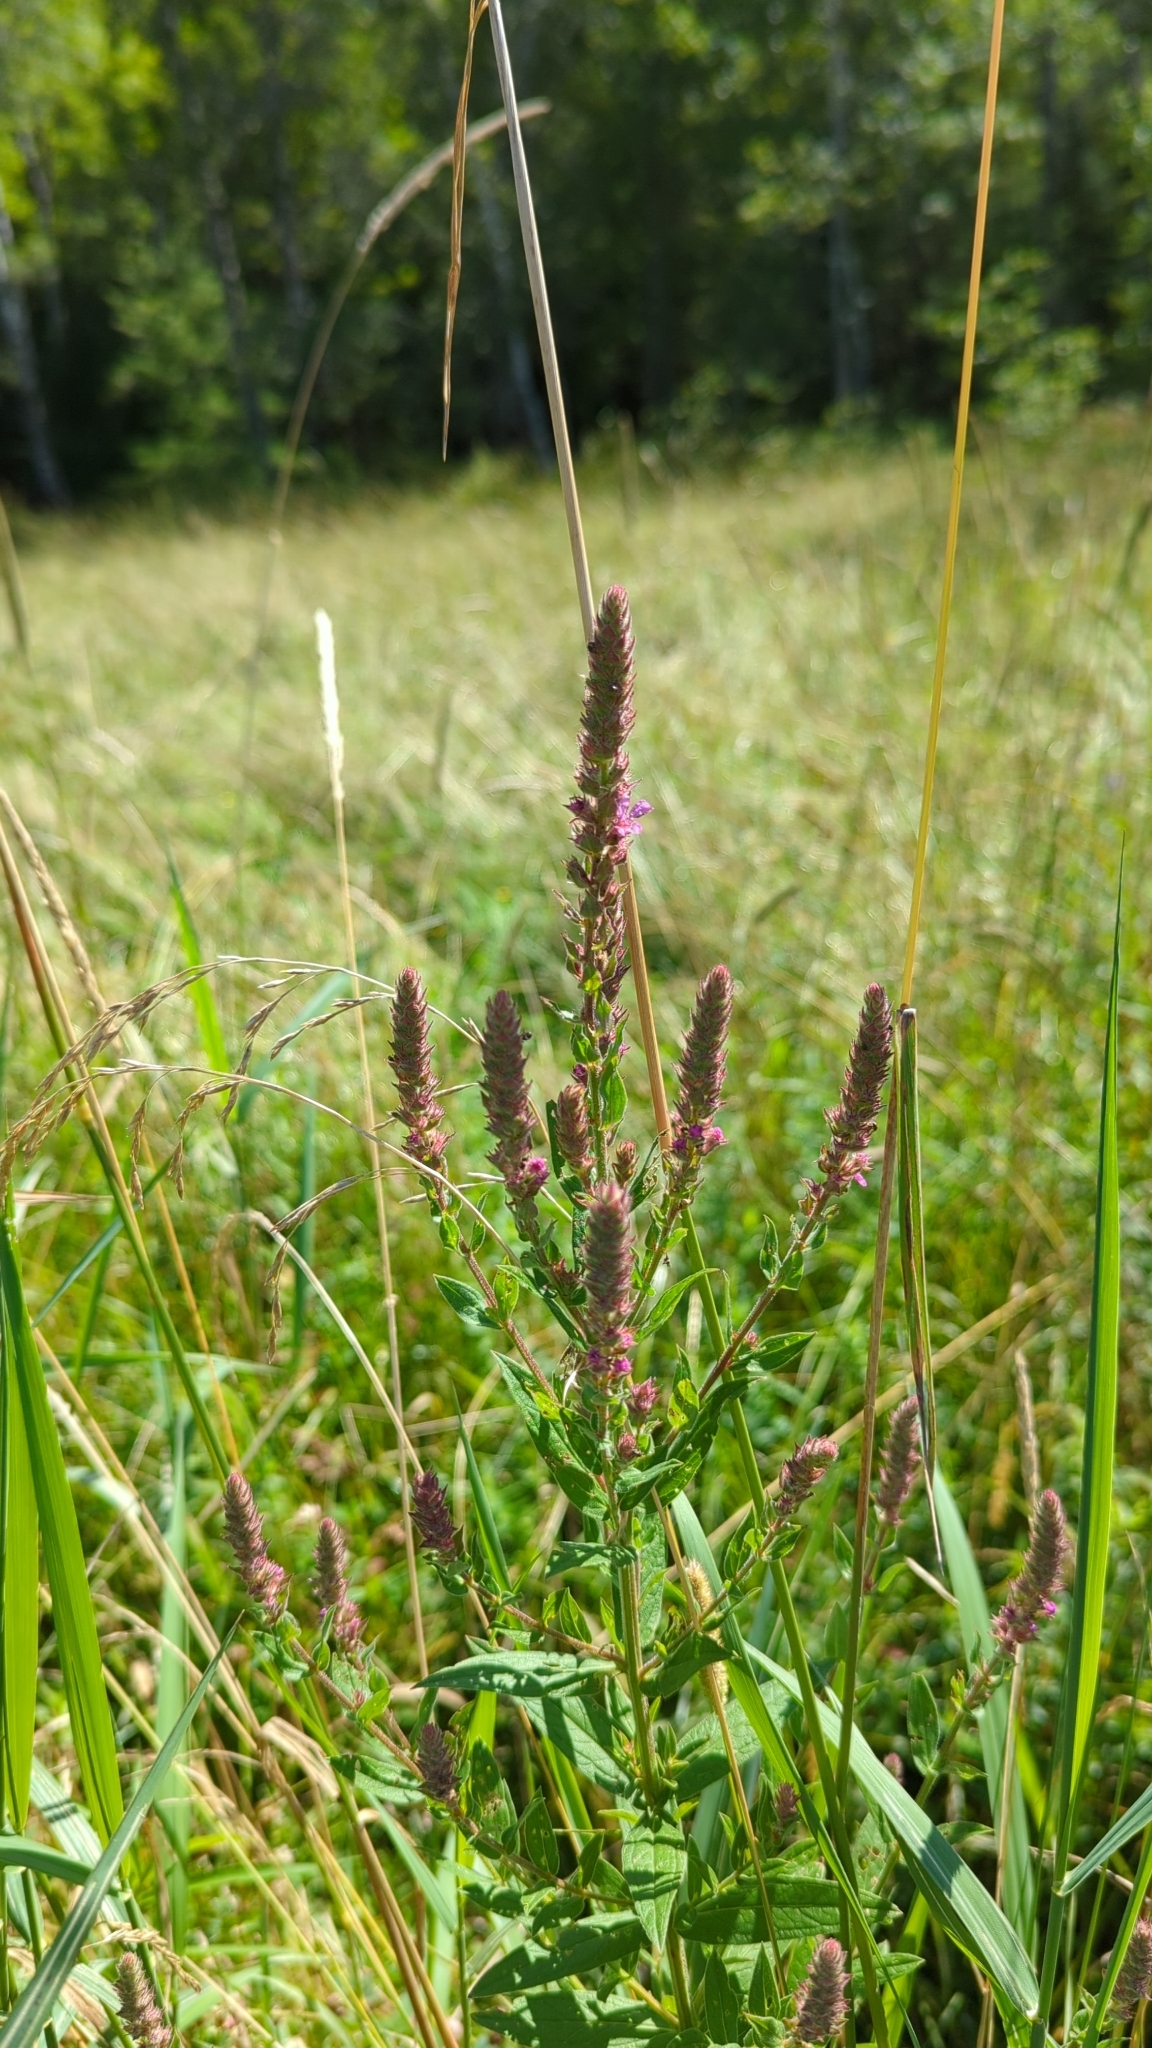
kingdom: Plantae
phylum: Tracheophyta
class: Magnoliopsida
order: Myrtales
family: Lythraceae
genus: Lythrum
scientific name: Lythrum salicaria
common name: Purple loosestrife
